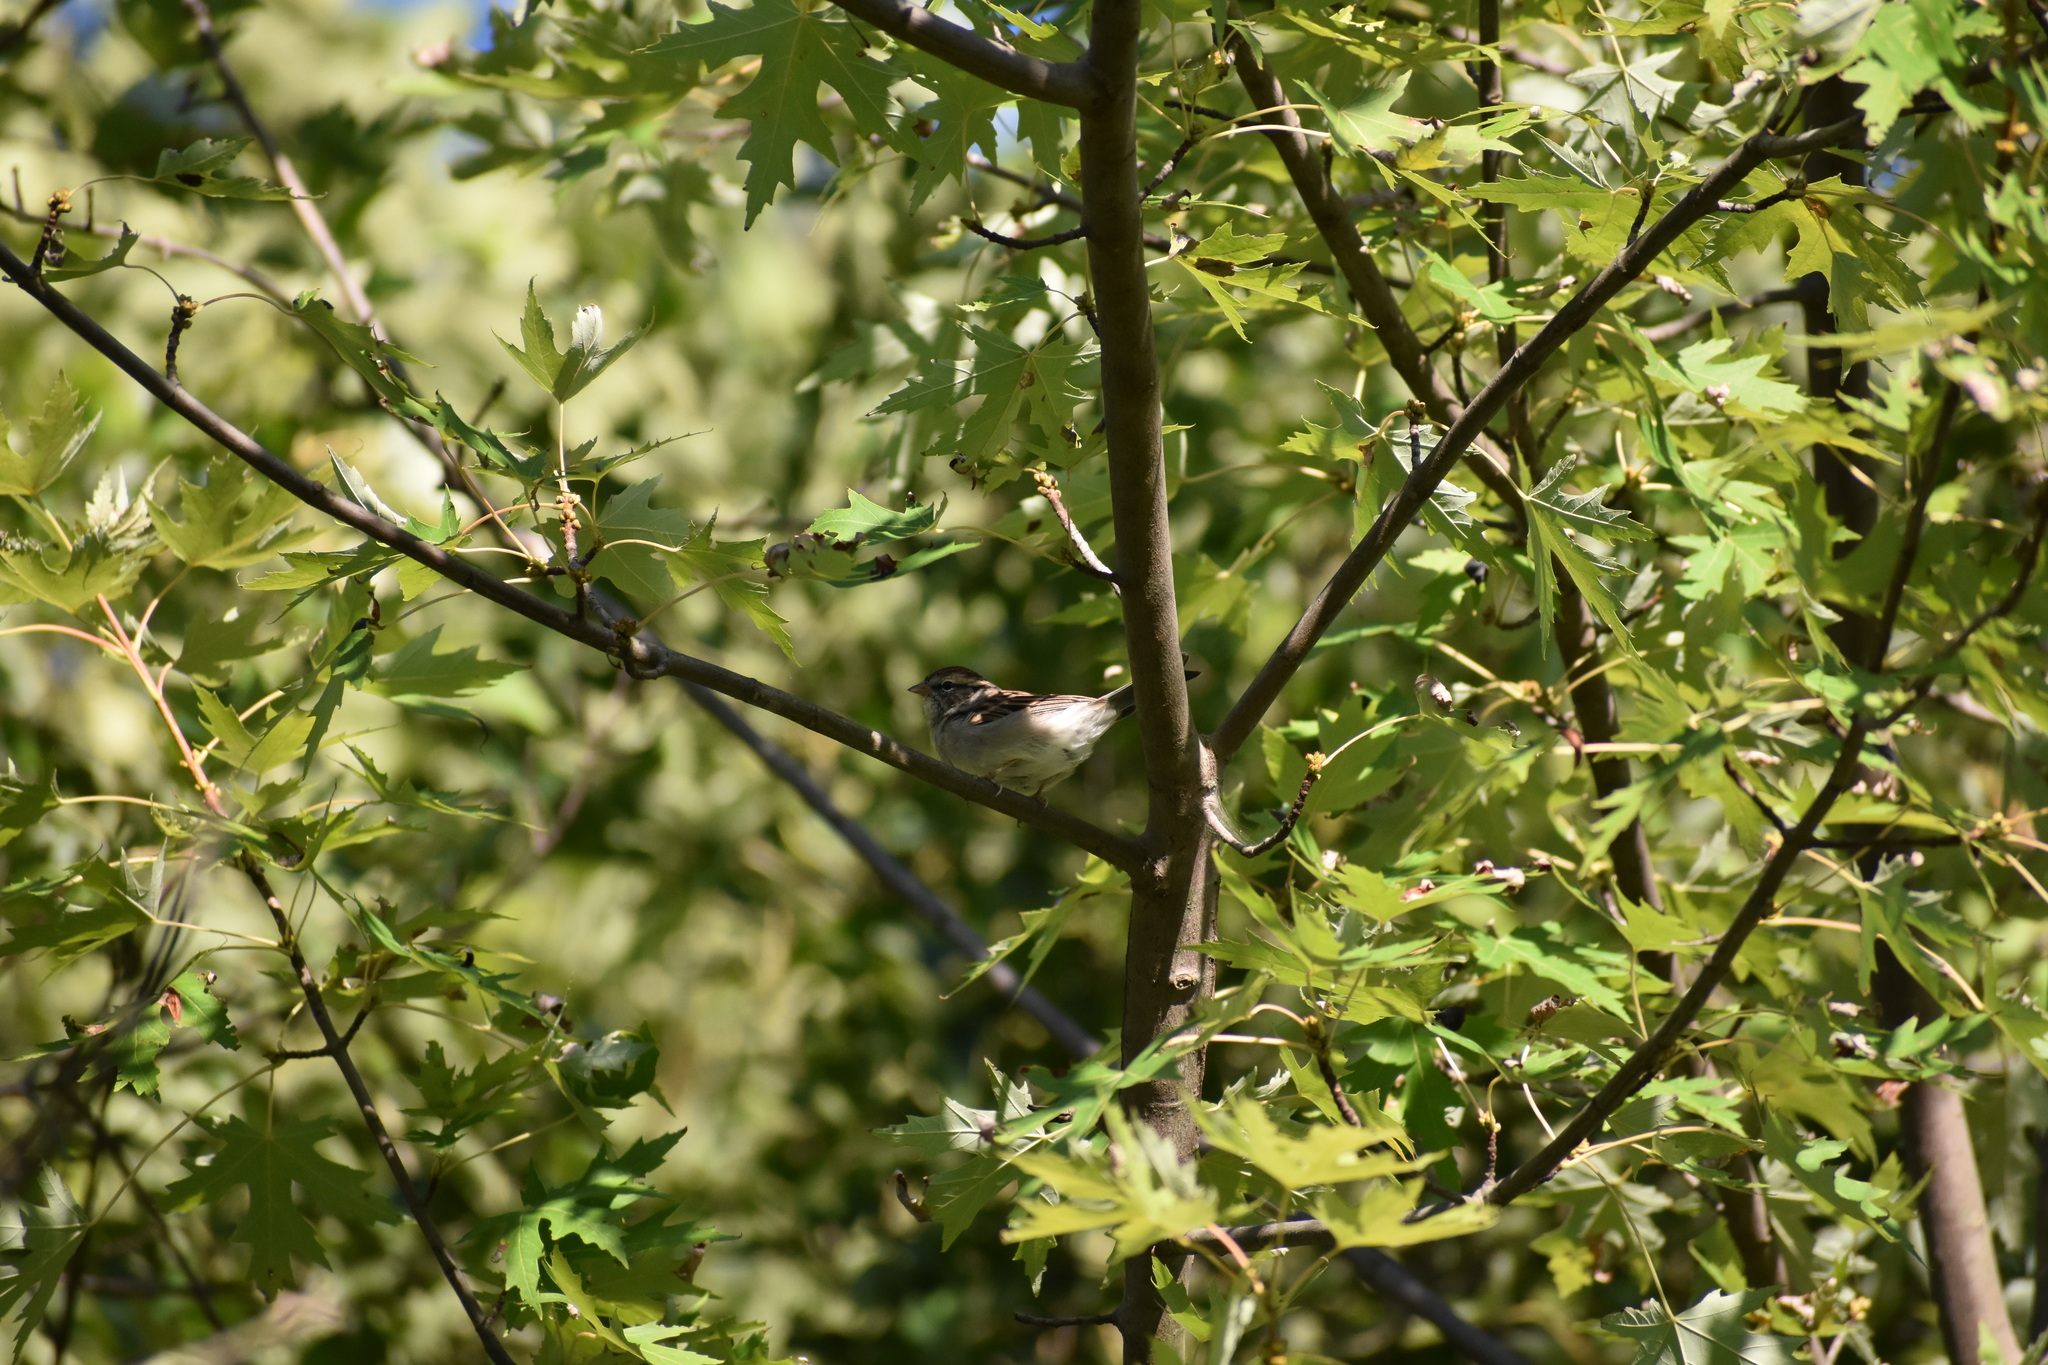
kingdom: Animalia
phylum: Chordata
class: Aves
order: Passeriformes
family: Passerellidae
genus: Spizella
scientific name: Spizella passerina
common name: Chipping sparrow
